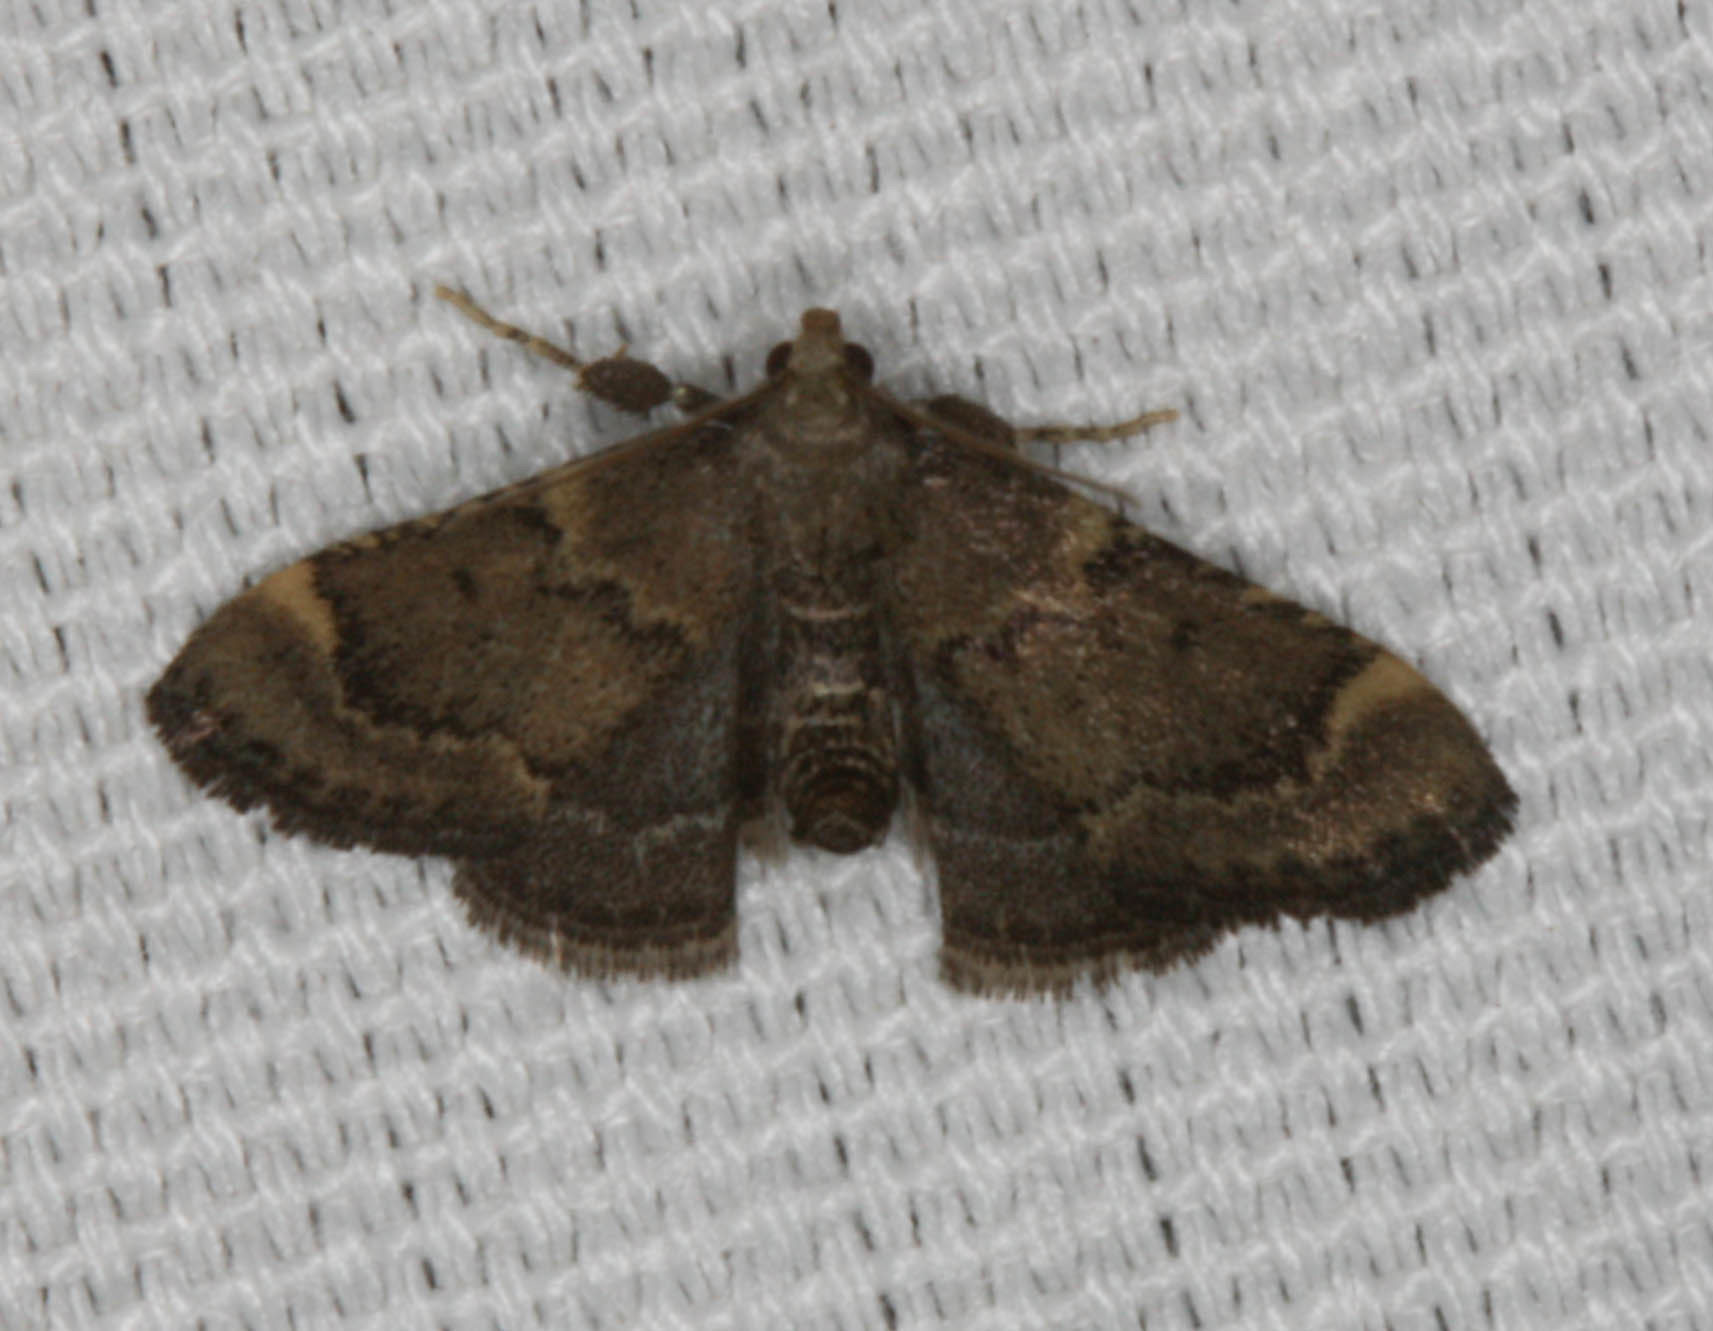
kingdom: Animalia
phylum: Arthropoda
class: Insecta
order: Lepidoptera
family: Pyralidae
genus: Hypsopygia
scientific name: Hypsopygia phoezalis
